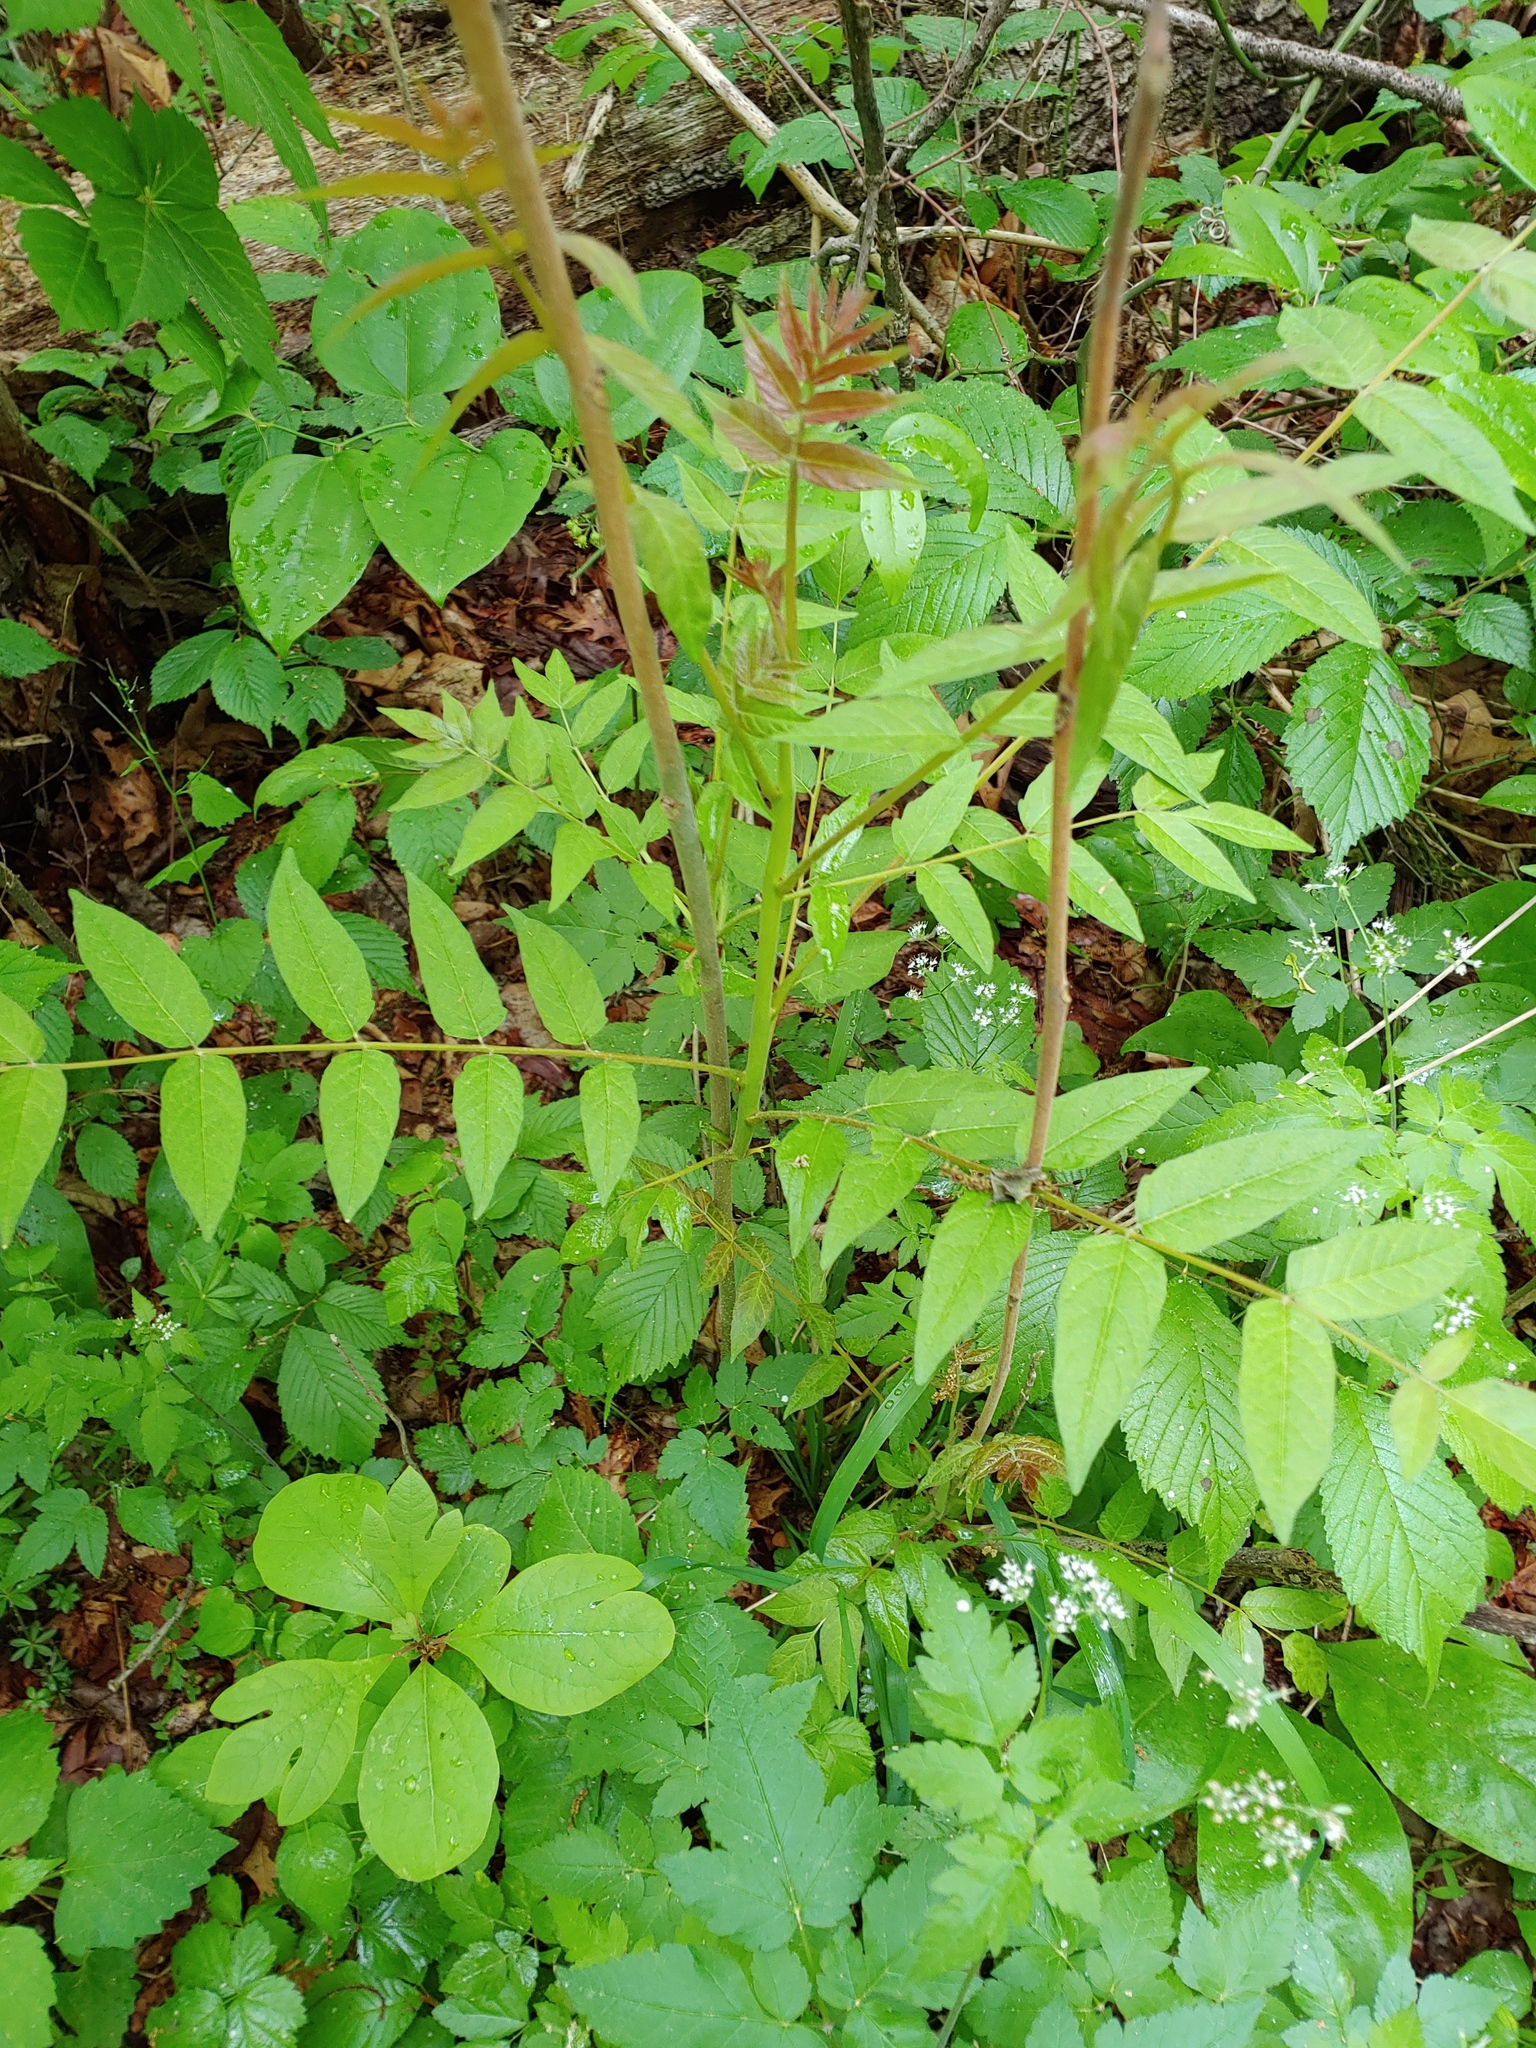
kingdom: Plantae
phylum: Tracheophyta
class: Magnoliopsida
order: Sapindales
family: Simaroubaceae
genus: Ailanthus
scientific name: Ailanthus altissima
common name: Tree-of-heaven
